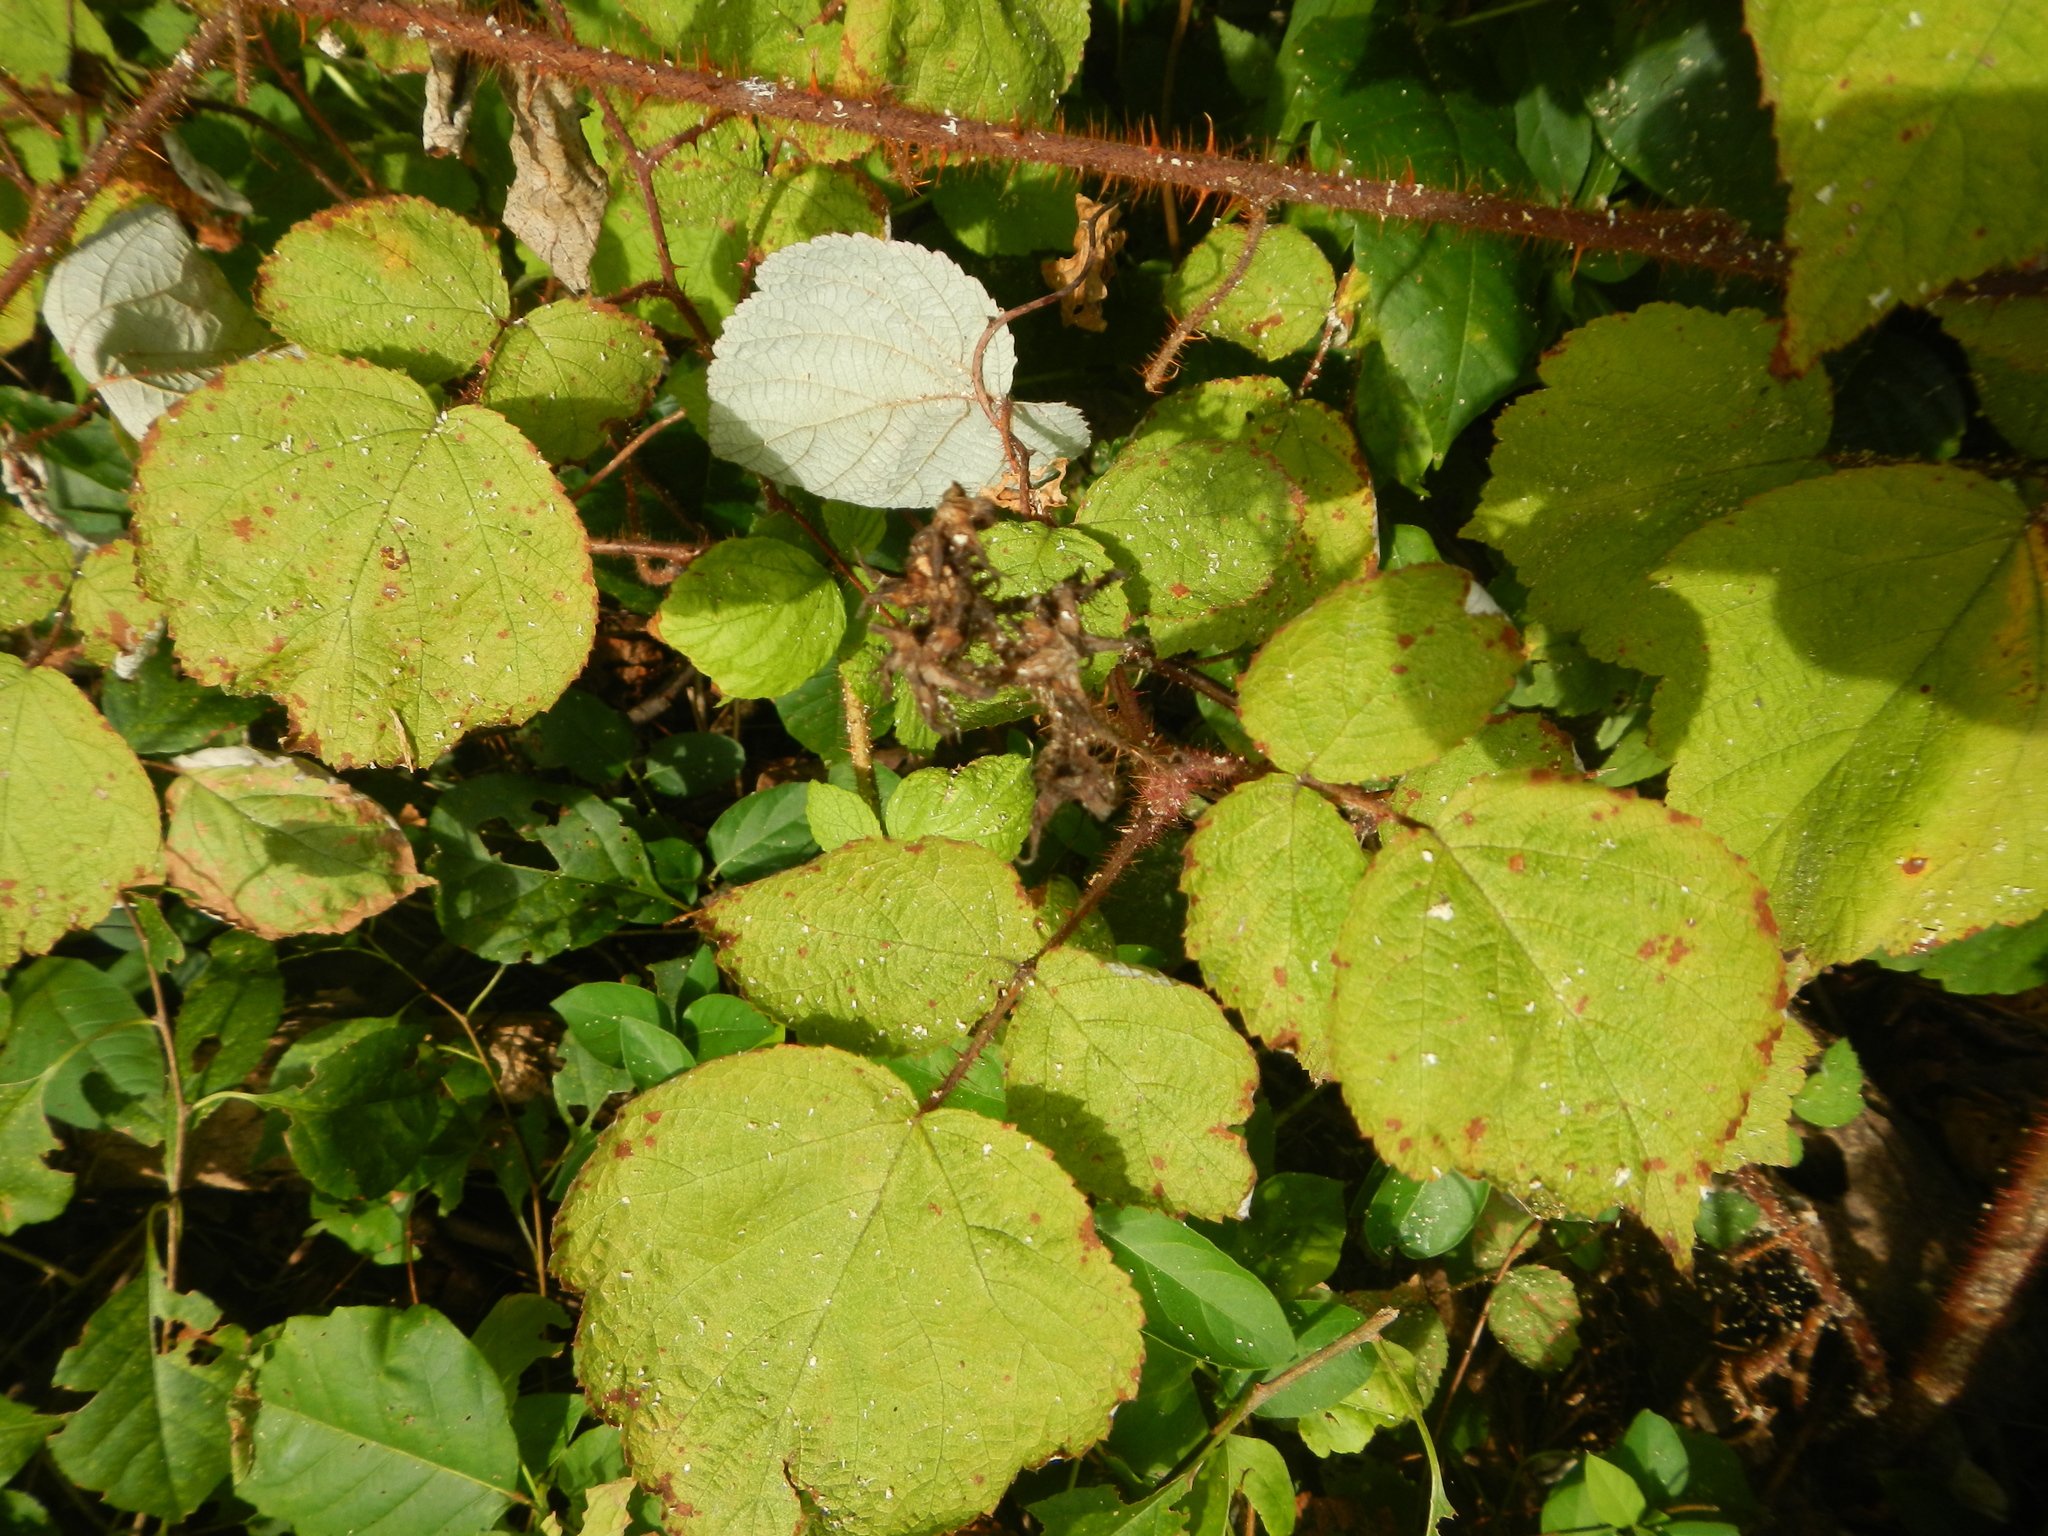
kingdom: Plantae
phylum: Tracheophyta
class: Magnoliopsida
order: Rosales
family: Rosaceae
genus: Rubus
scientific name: Rubus phoenicolasius
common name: Japanese wineberry
